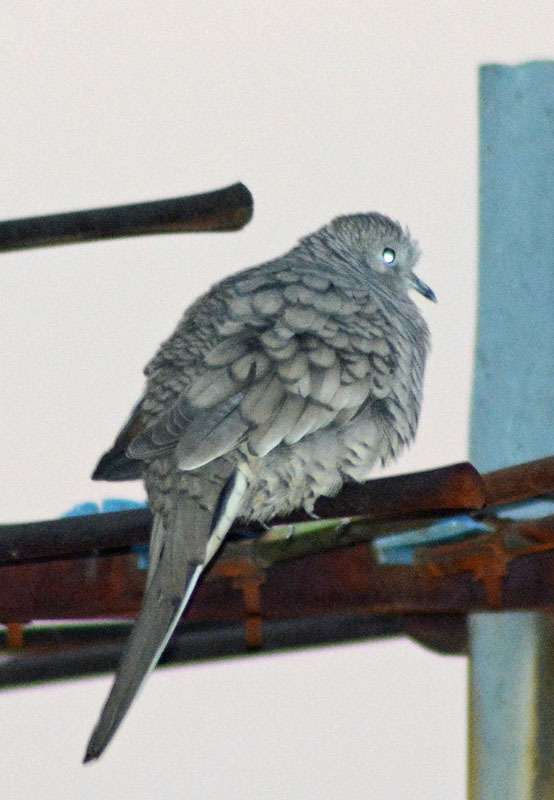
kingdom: Animalia
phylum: Chordata
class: Aves
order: Columbiformes
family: Columbidae
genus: Columbina
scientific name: Columbina inca
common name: Inca dove
